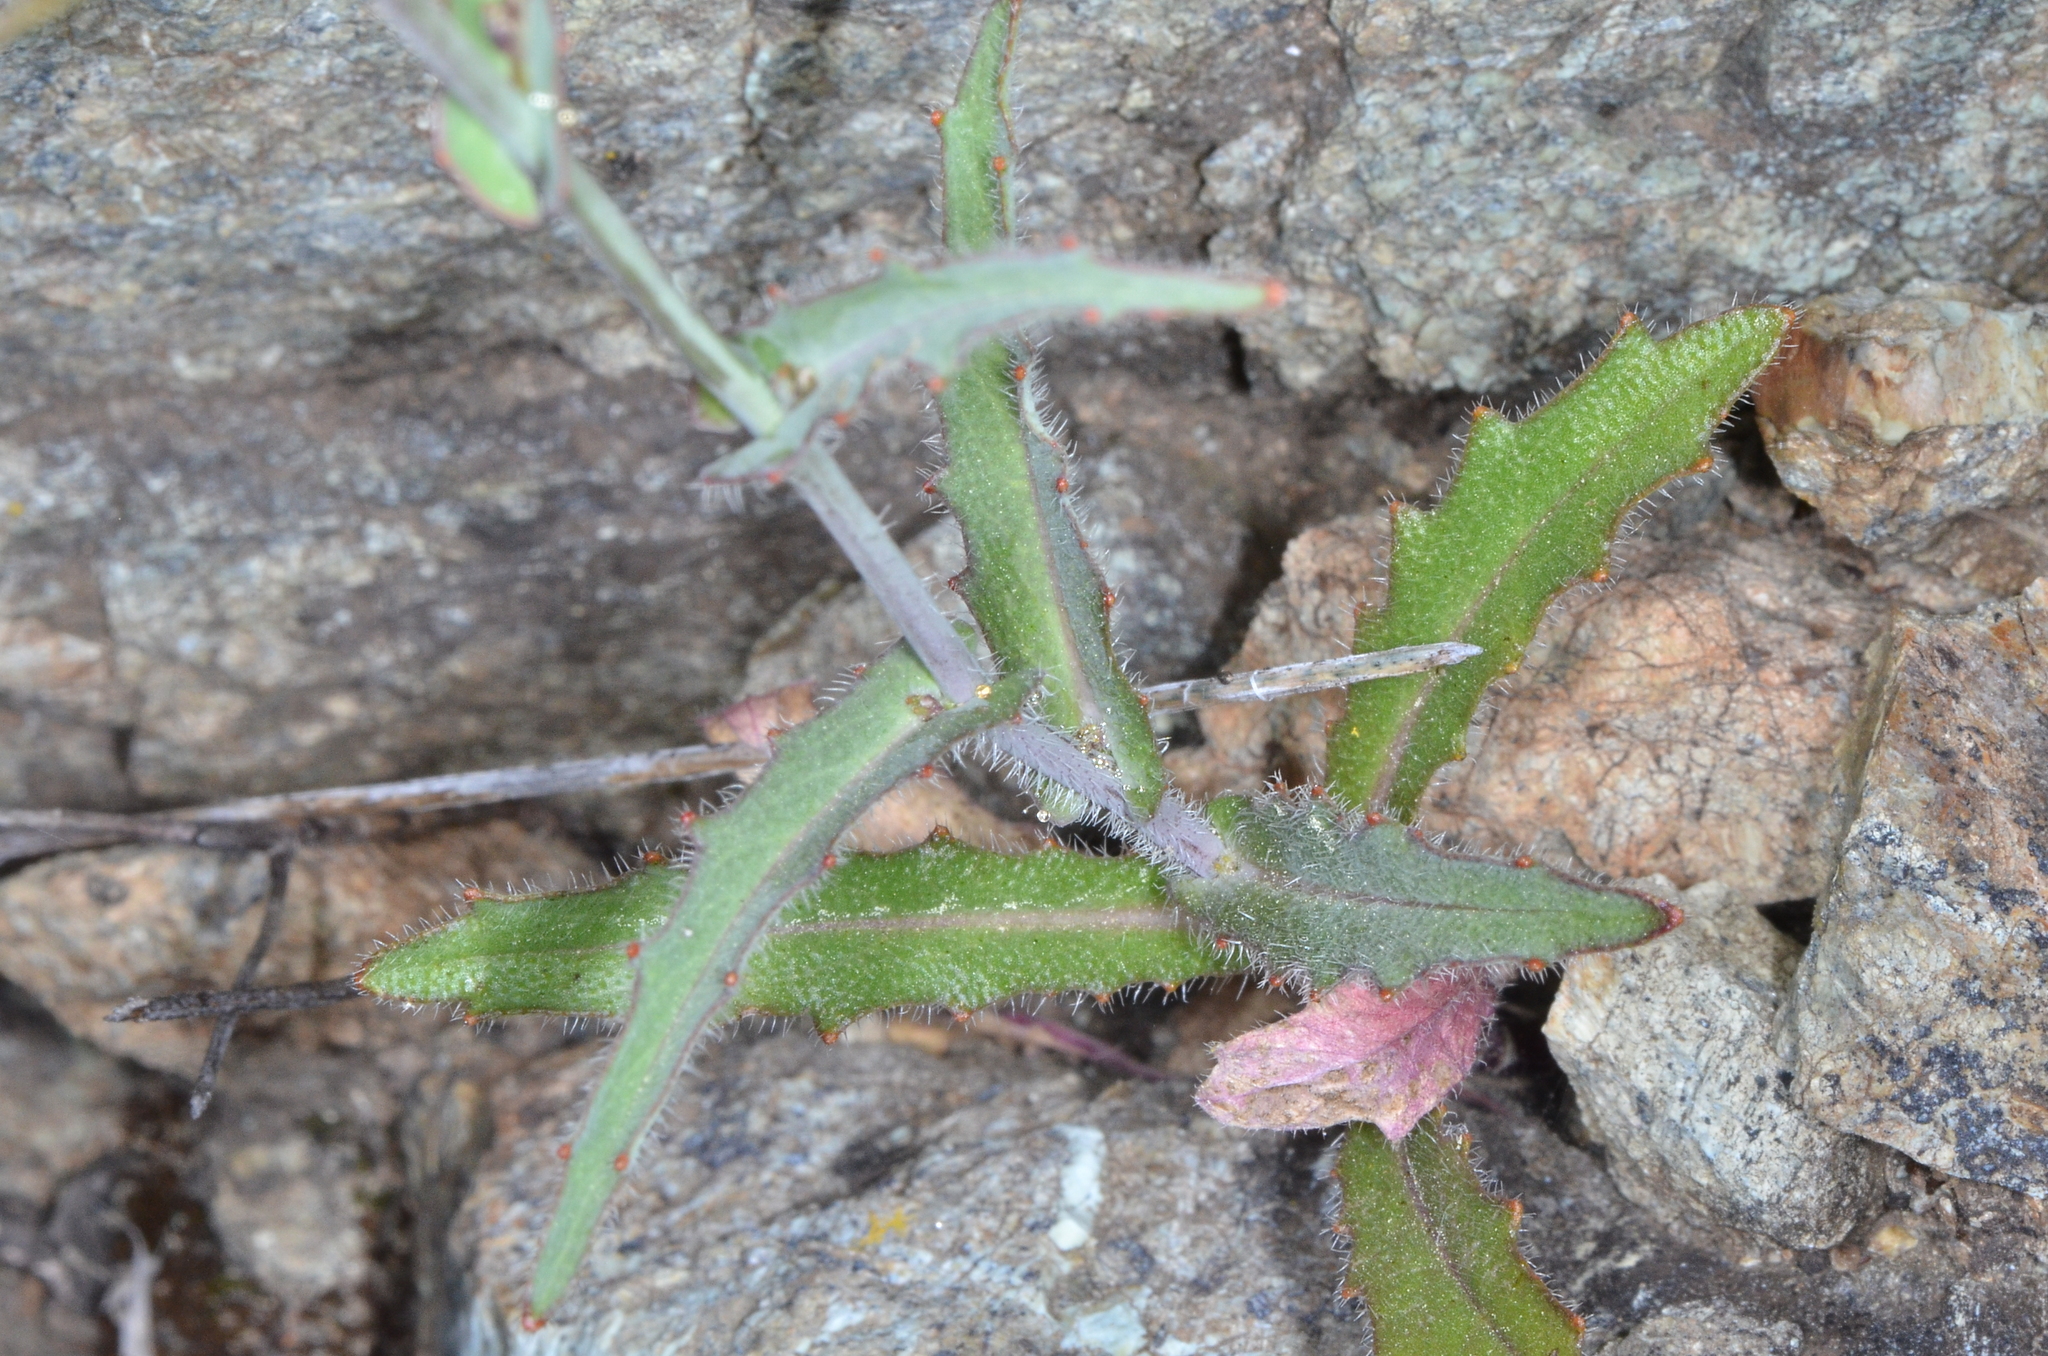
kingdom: Plantae
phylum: Tracheophyta
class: Magnoliopsida
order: Brassicales
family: Brassicaceae
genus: Streptanthus
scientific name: Streptanthus glandulosus
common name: Jewel-flower
